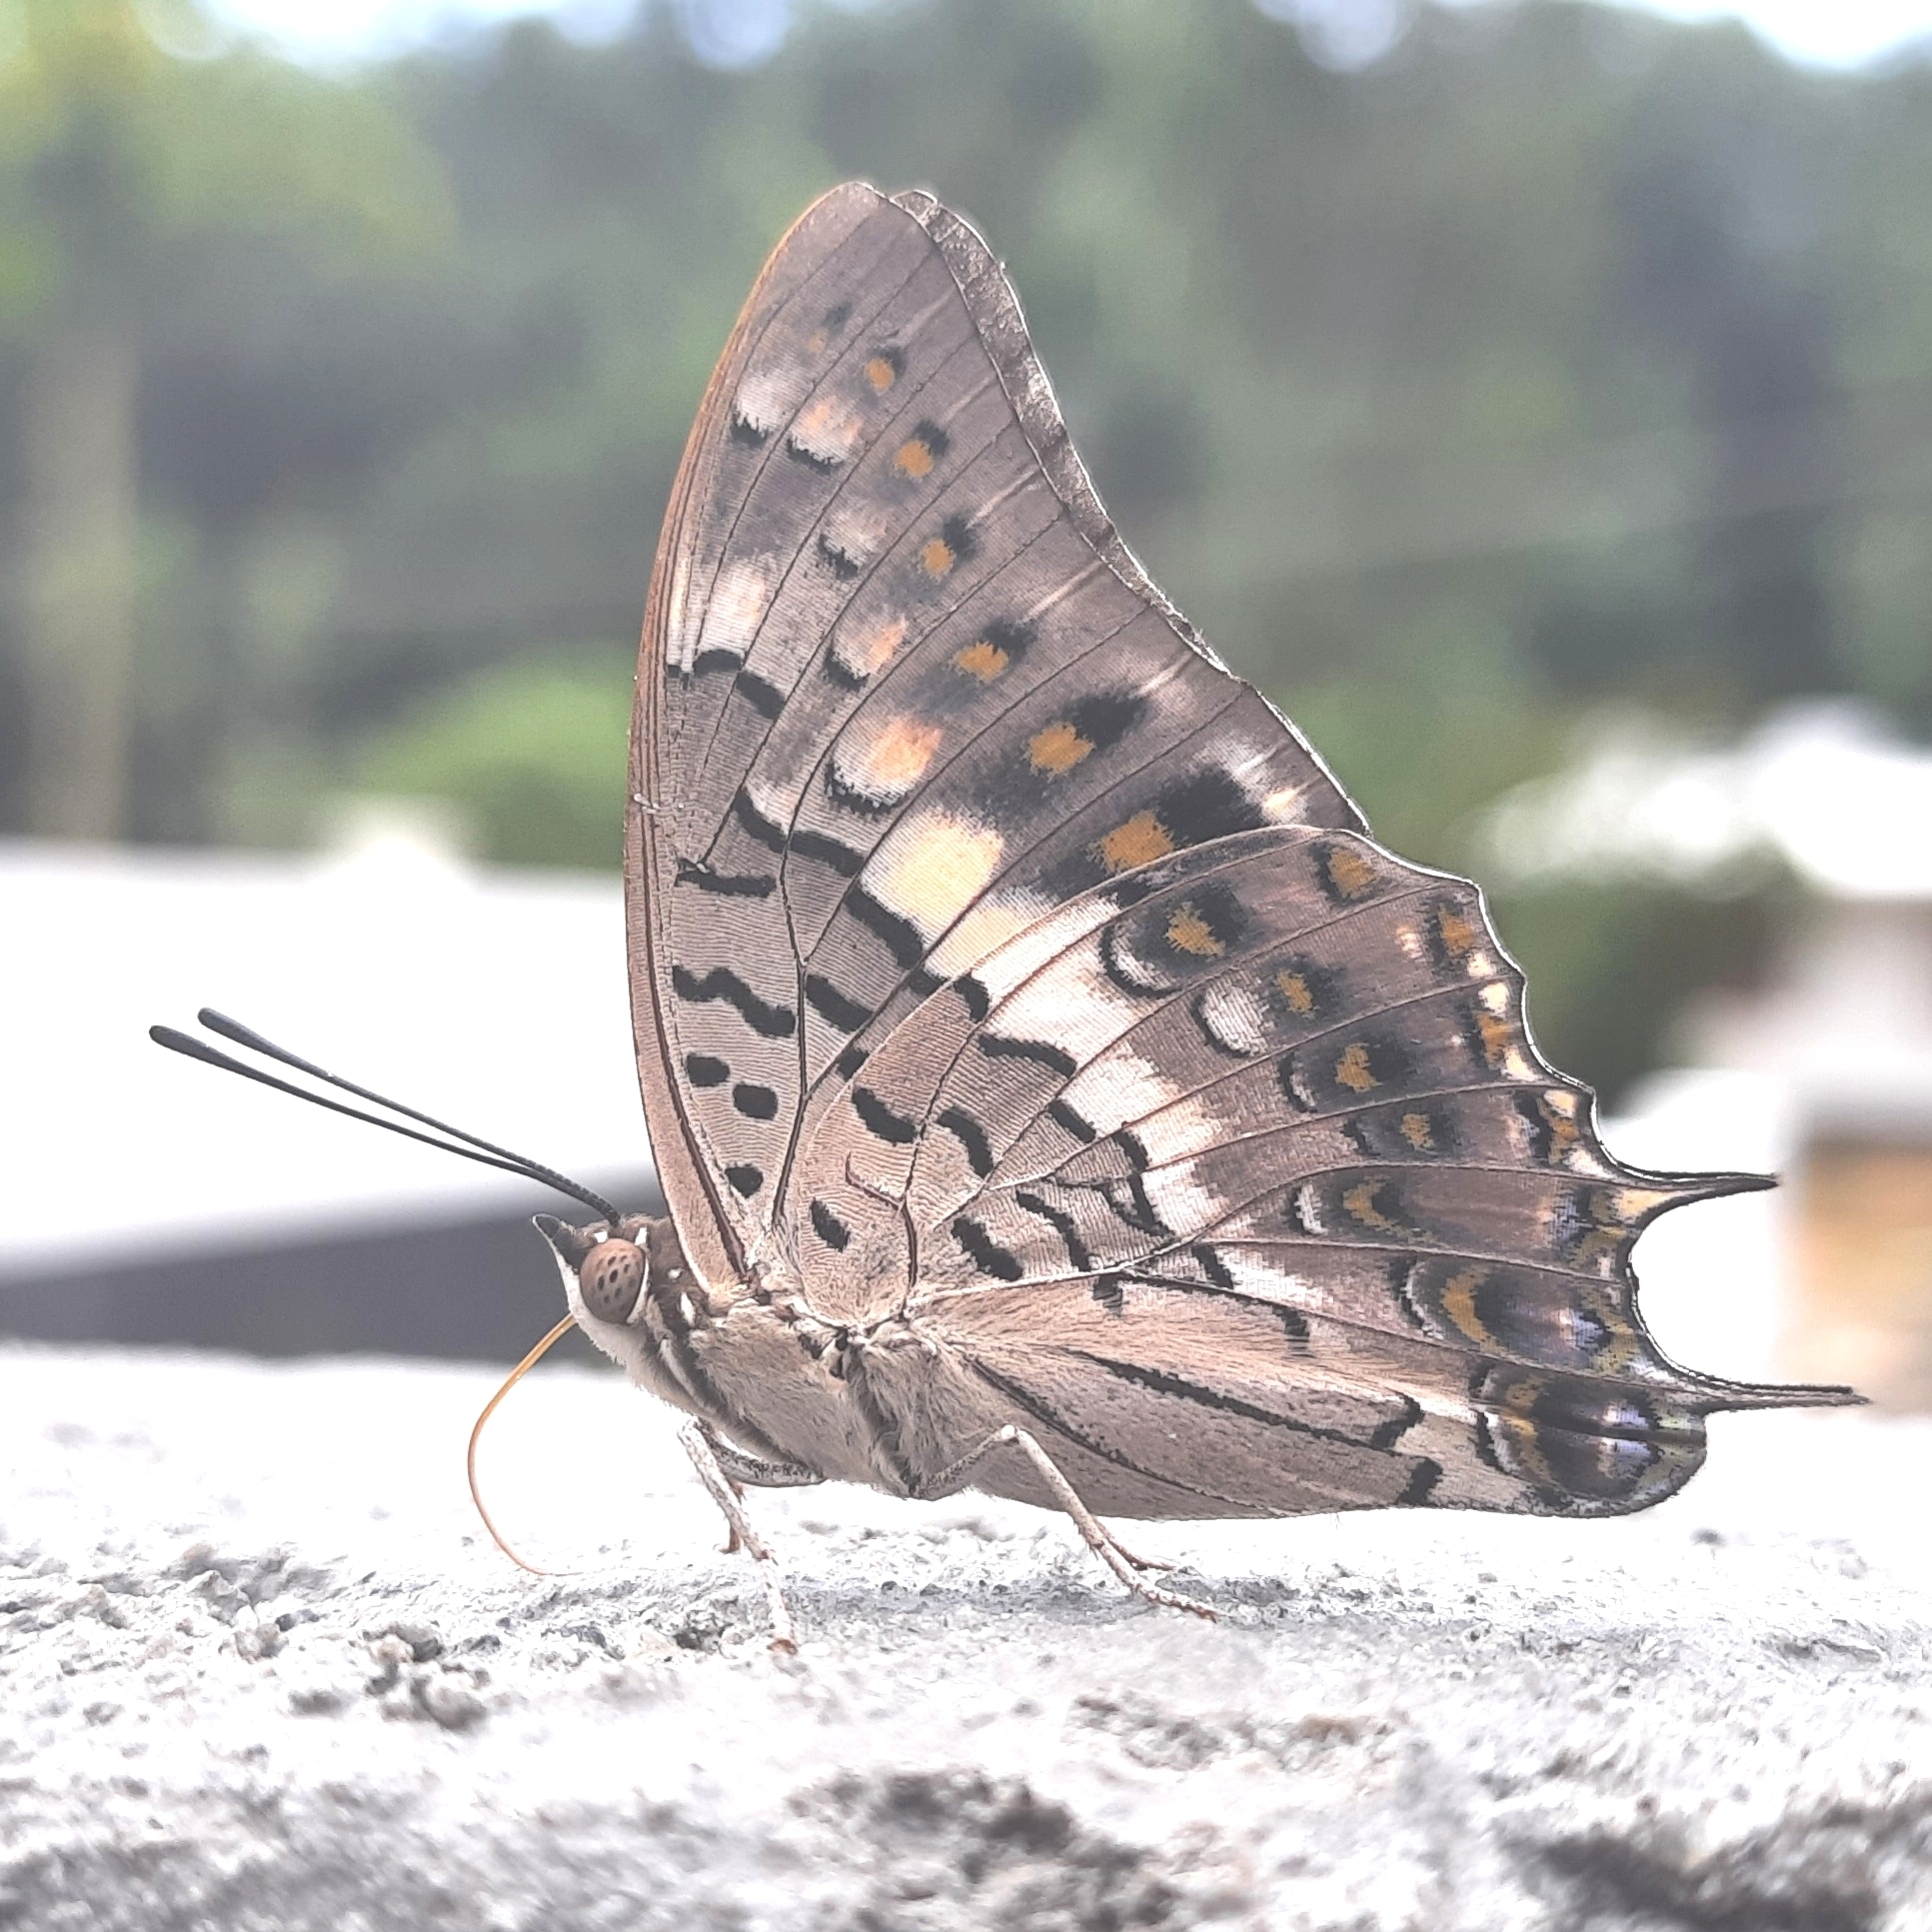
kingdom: Animalia
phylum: Arthropoda
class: Insecta
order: Lepidoptera
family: Nymphalidae
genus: Charaxes
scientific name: Charaxes solon
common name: Black rajah
